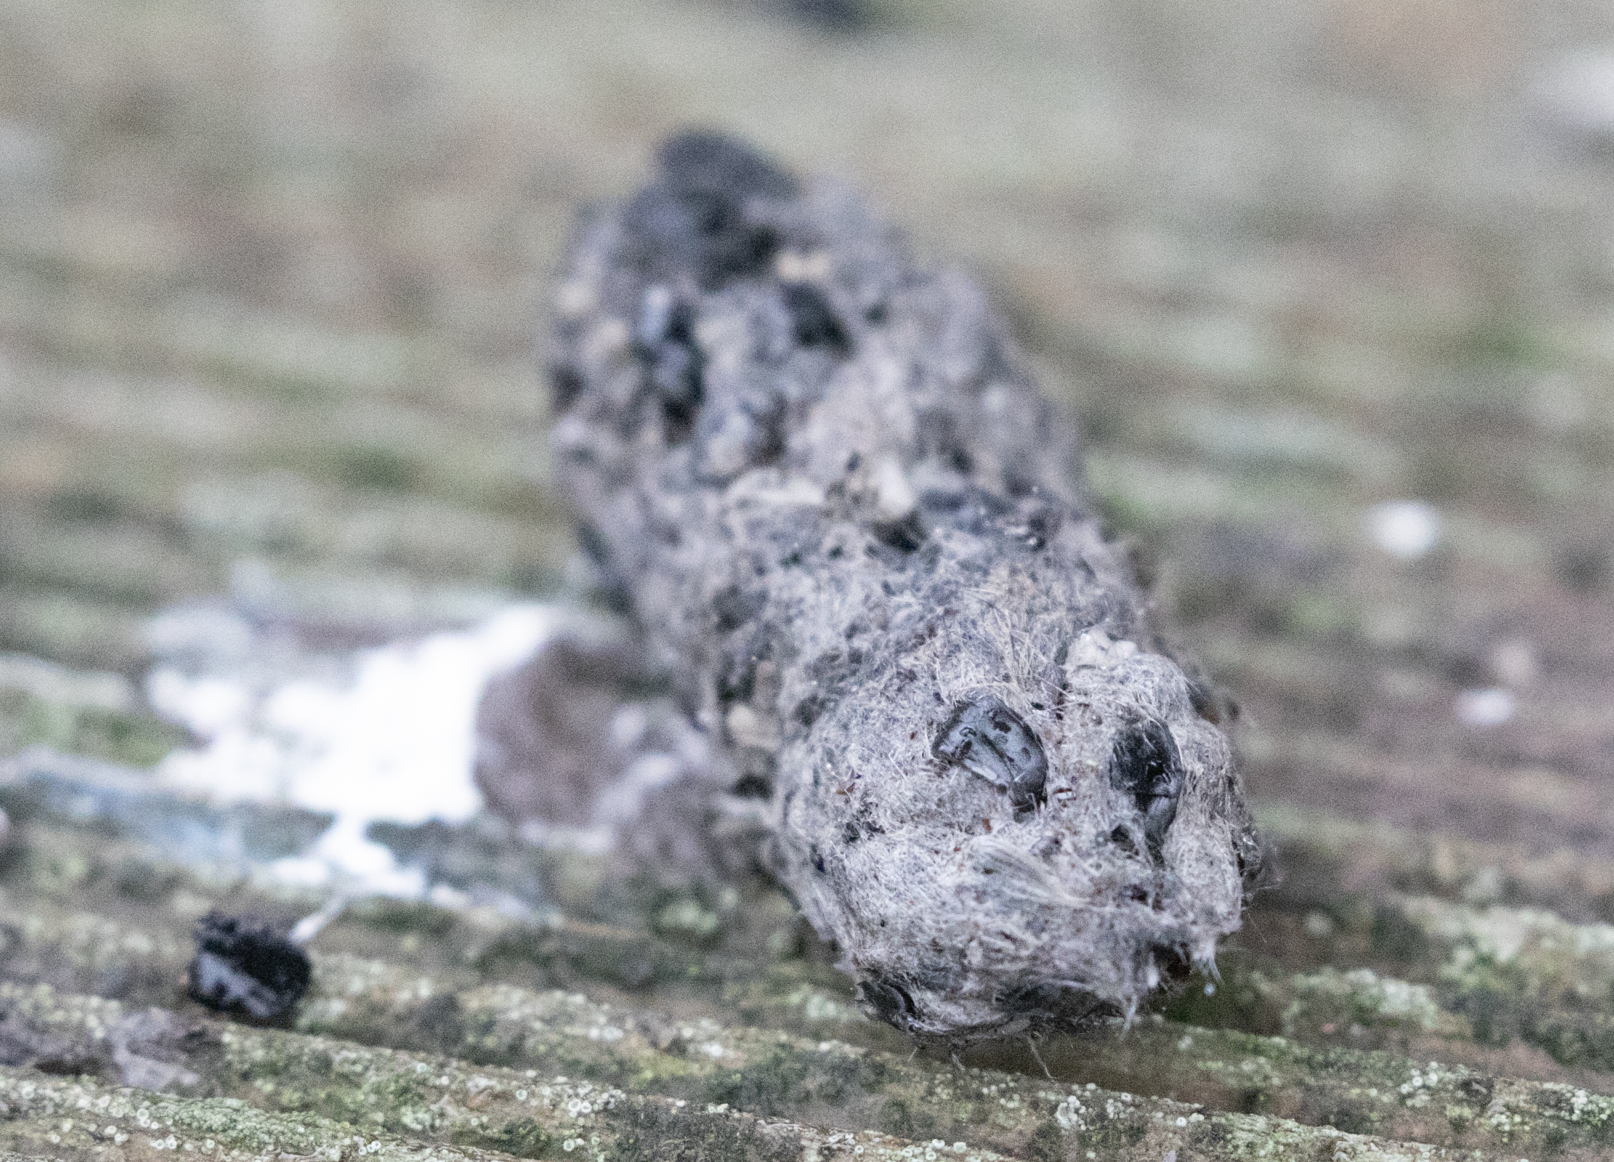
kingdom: Animalia
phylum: Chordata
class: Aves
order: Strigiformes
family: Strigidae
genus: Athene
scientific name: Athene noctua
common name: Little owl
